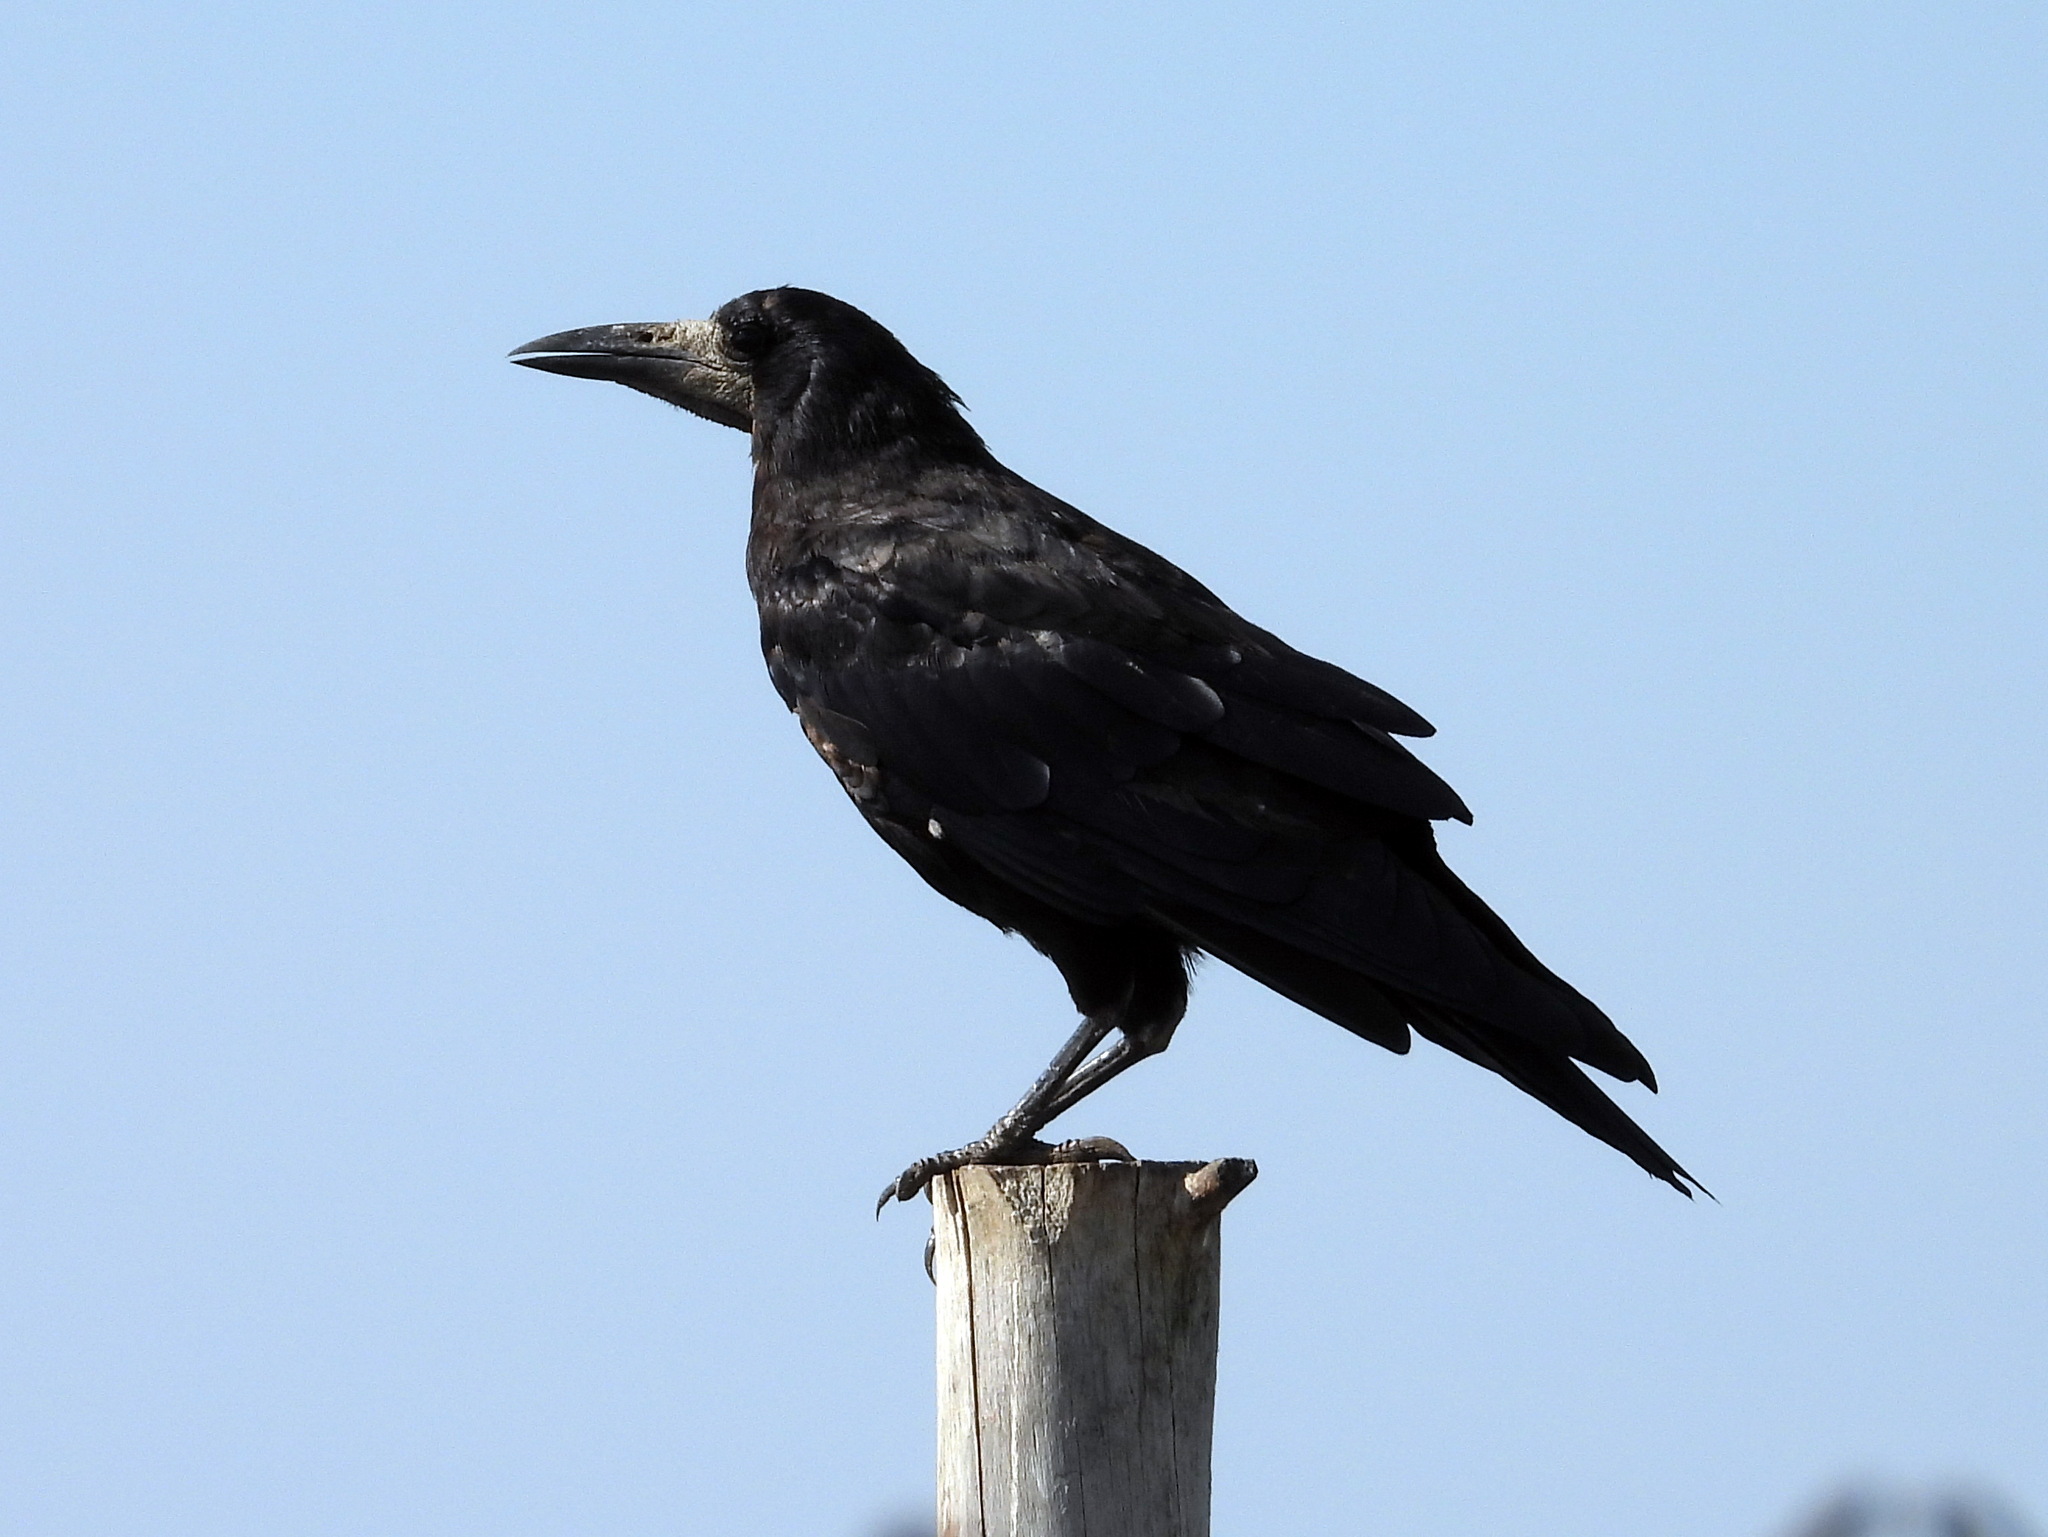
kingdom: Animalia
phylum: Chordata
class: Aves
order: Passeriformes
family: Corvidae
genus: Corvus
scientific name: Corvus frugilegus
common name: Rook
